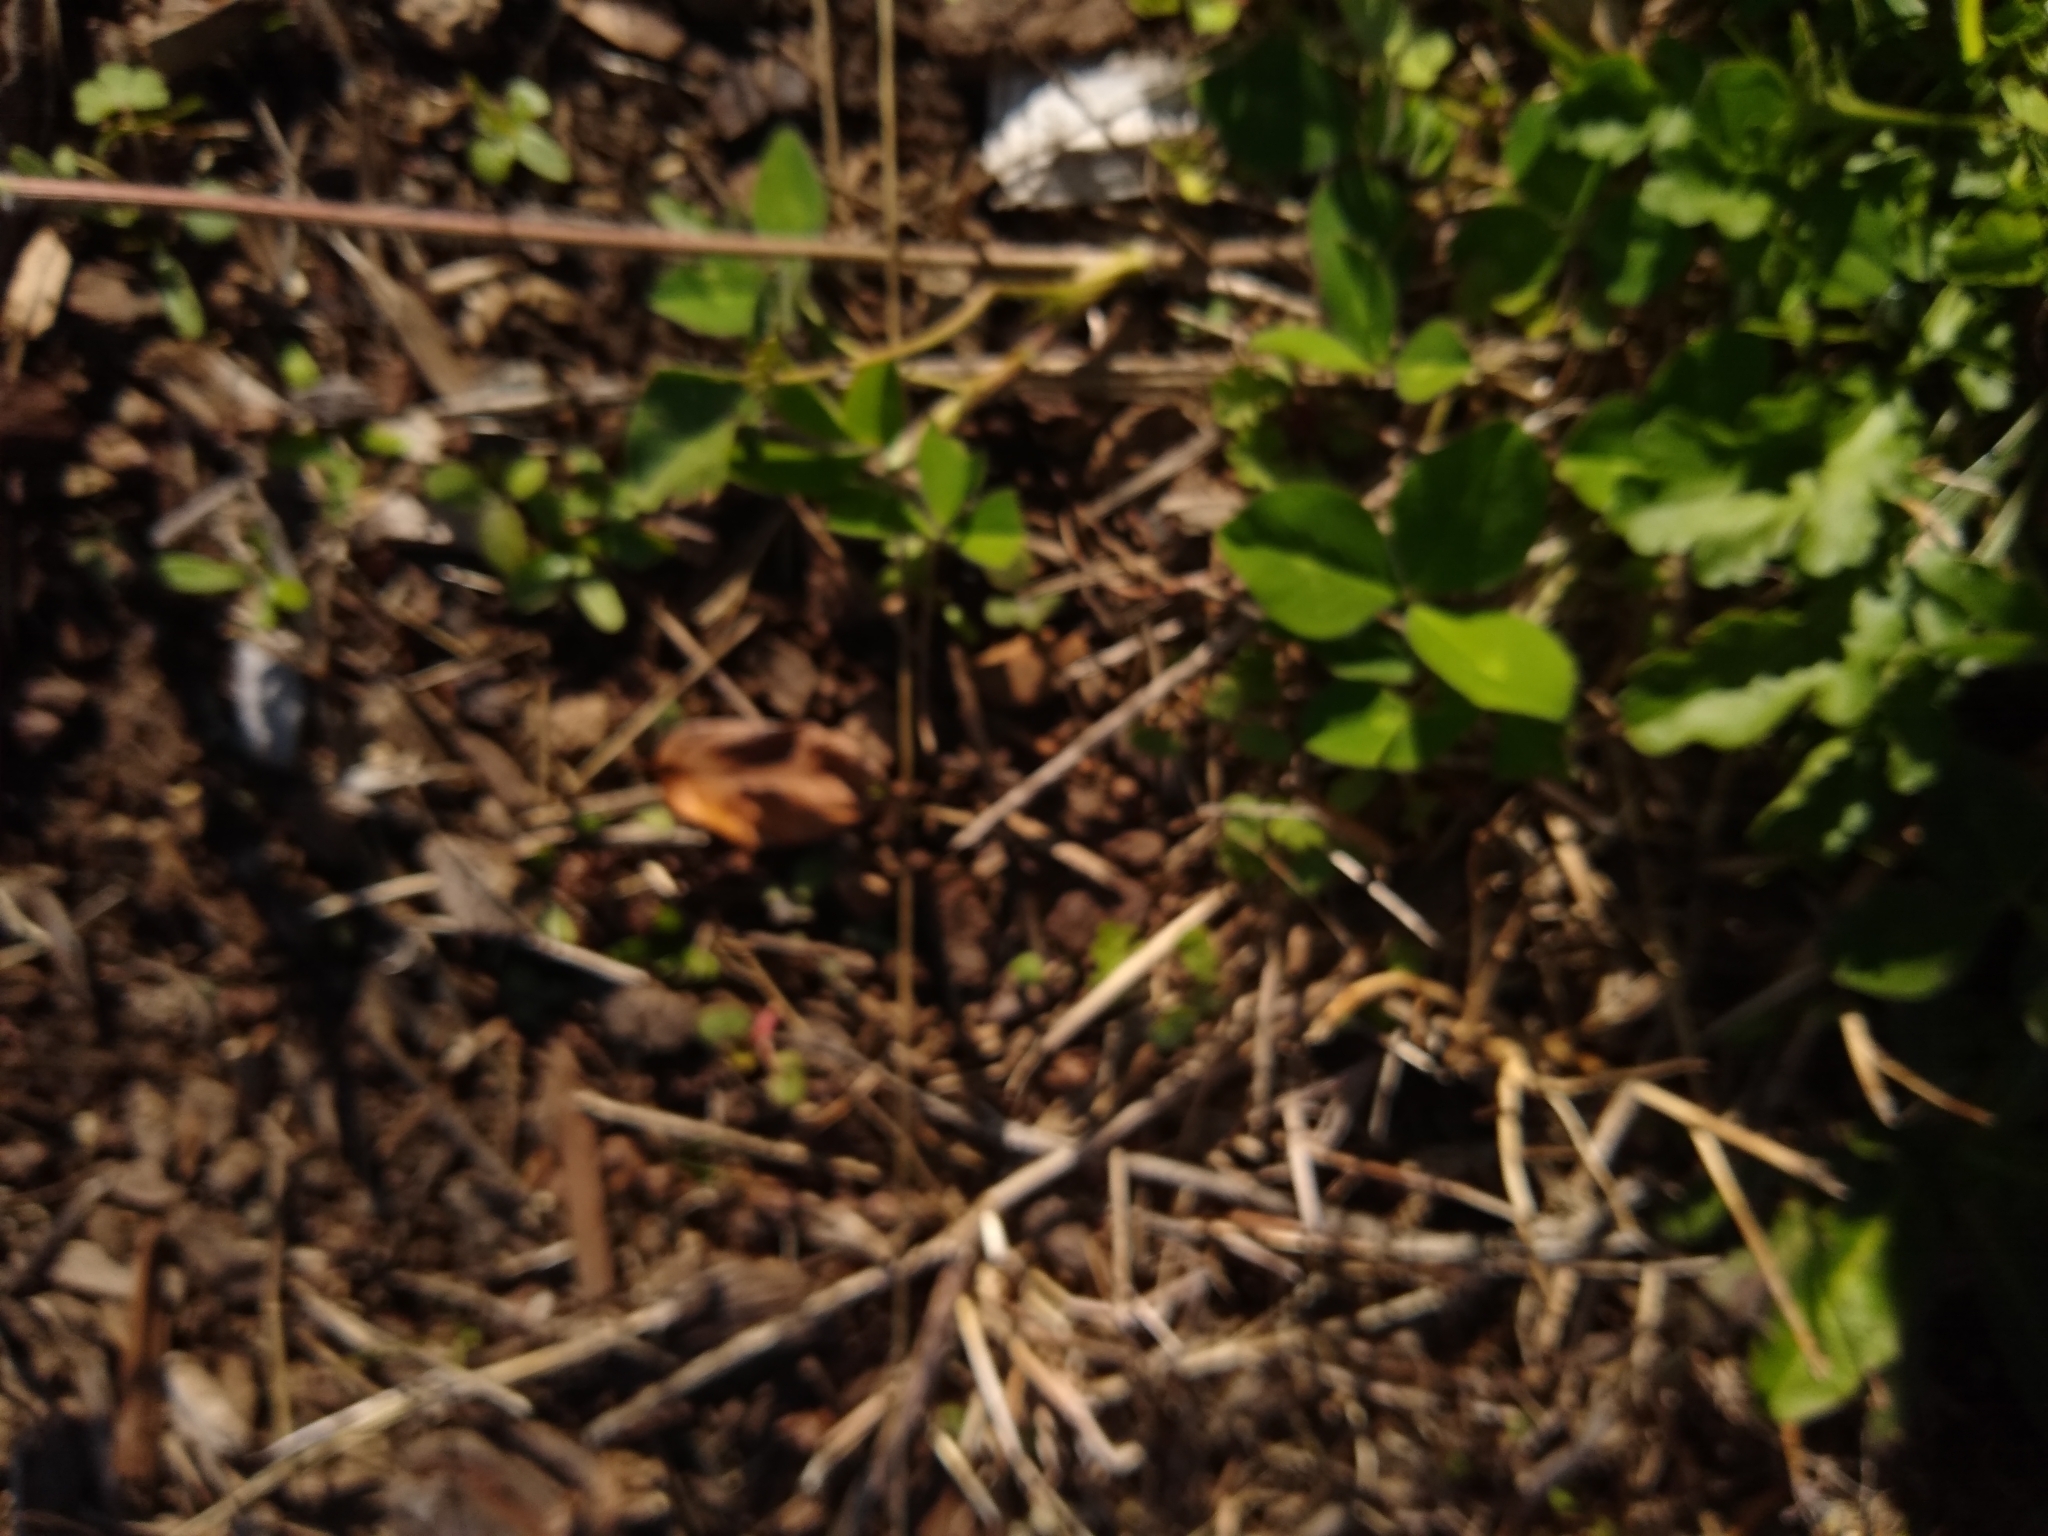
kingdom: Plantae
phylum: Tracheophyta
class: Magnoliopsida
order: Fabales
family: Fabaceae
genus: Trifolium
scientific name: Trifolium pratense
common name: Red clover
